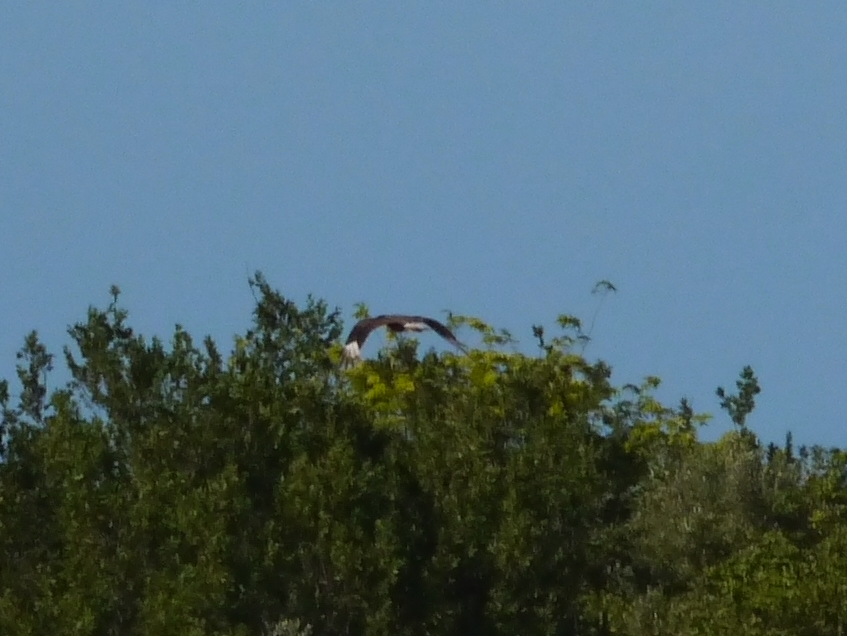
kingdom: Animalia
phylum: Chordata
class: Aves
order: Falconiformes
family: Falconidae
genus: Caracara
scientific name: Caracara plancus
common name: Southern caracara
